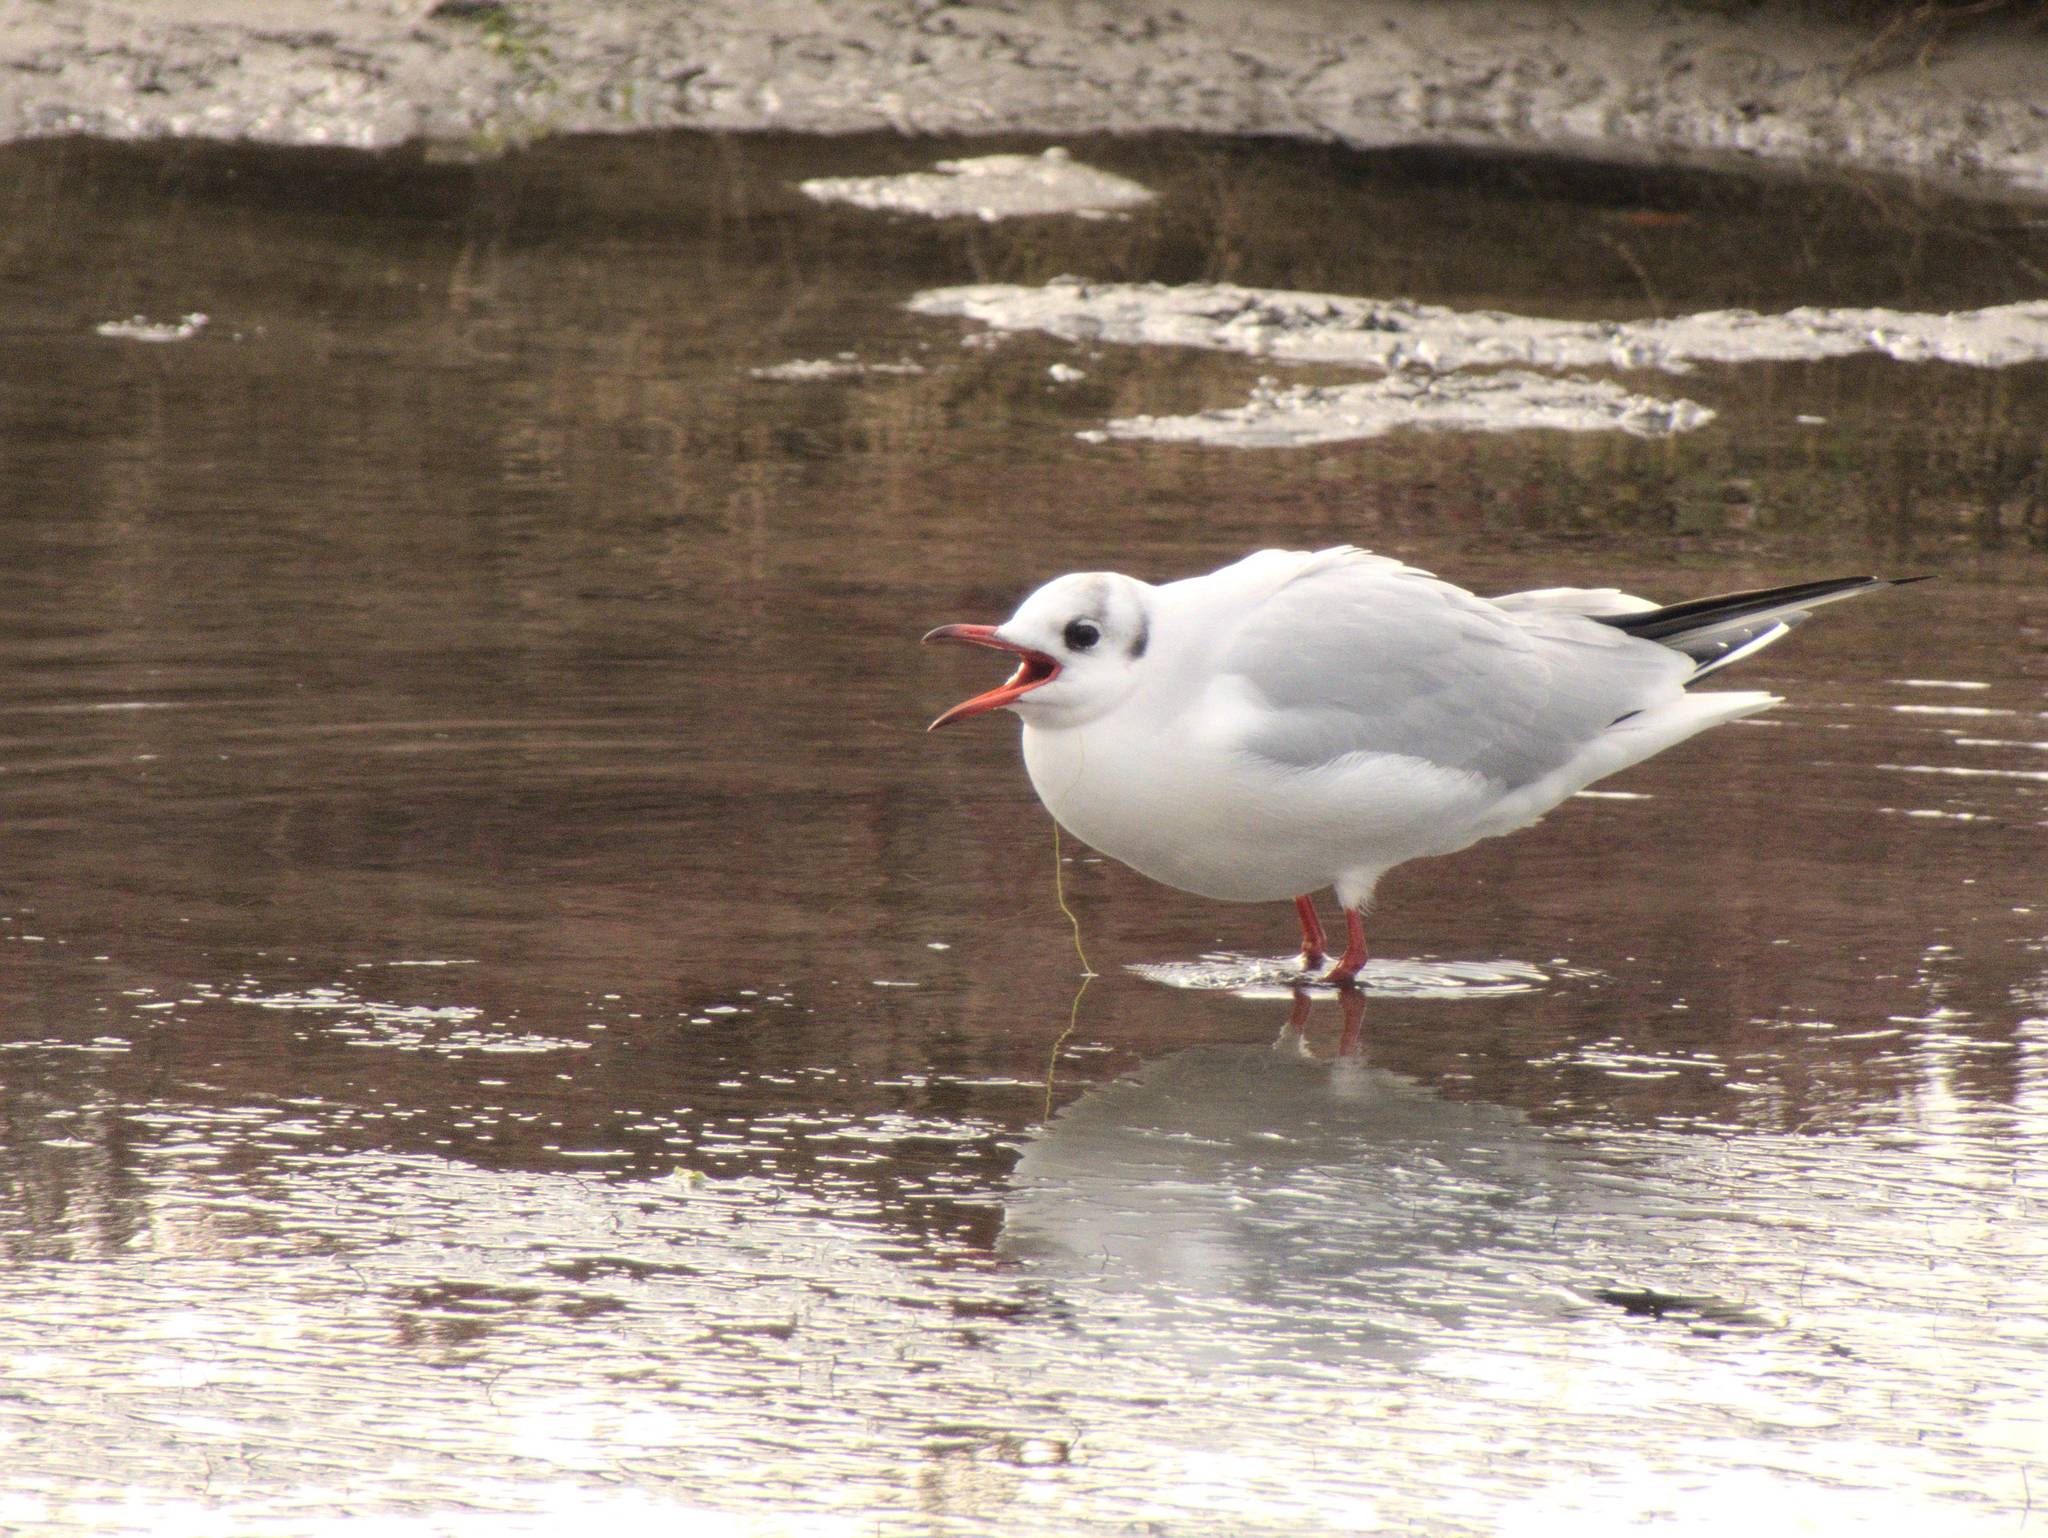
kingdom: Animalia
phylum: Chordata
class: Aves
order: Charadriiformes
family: Laridae
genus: Chroicocephalus
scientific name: Chroicocephalus ridibundus
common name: Black-headed gull
